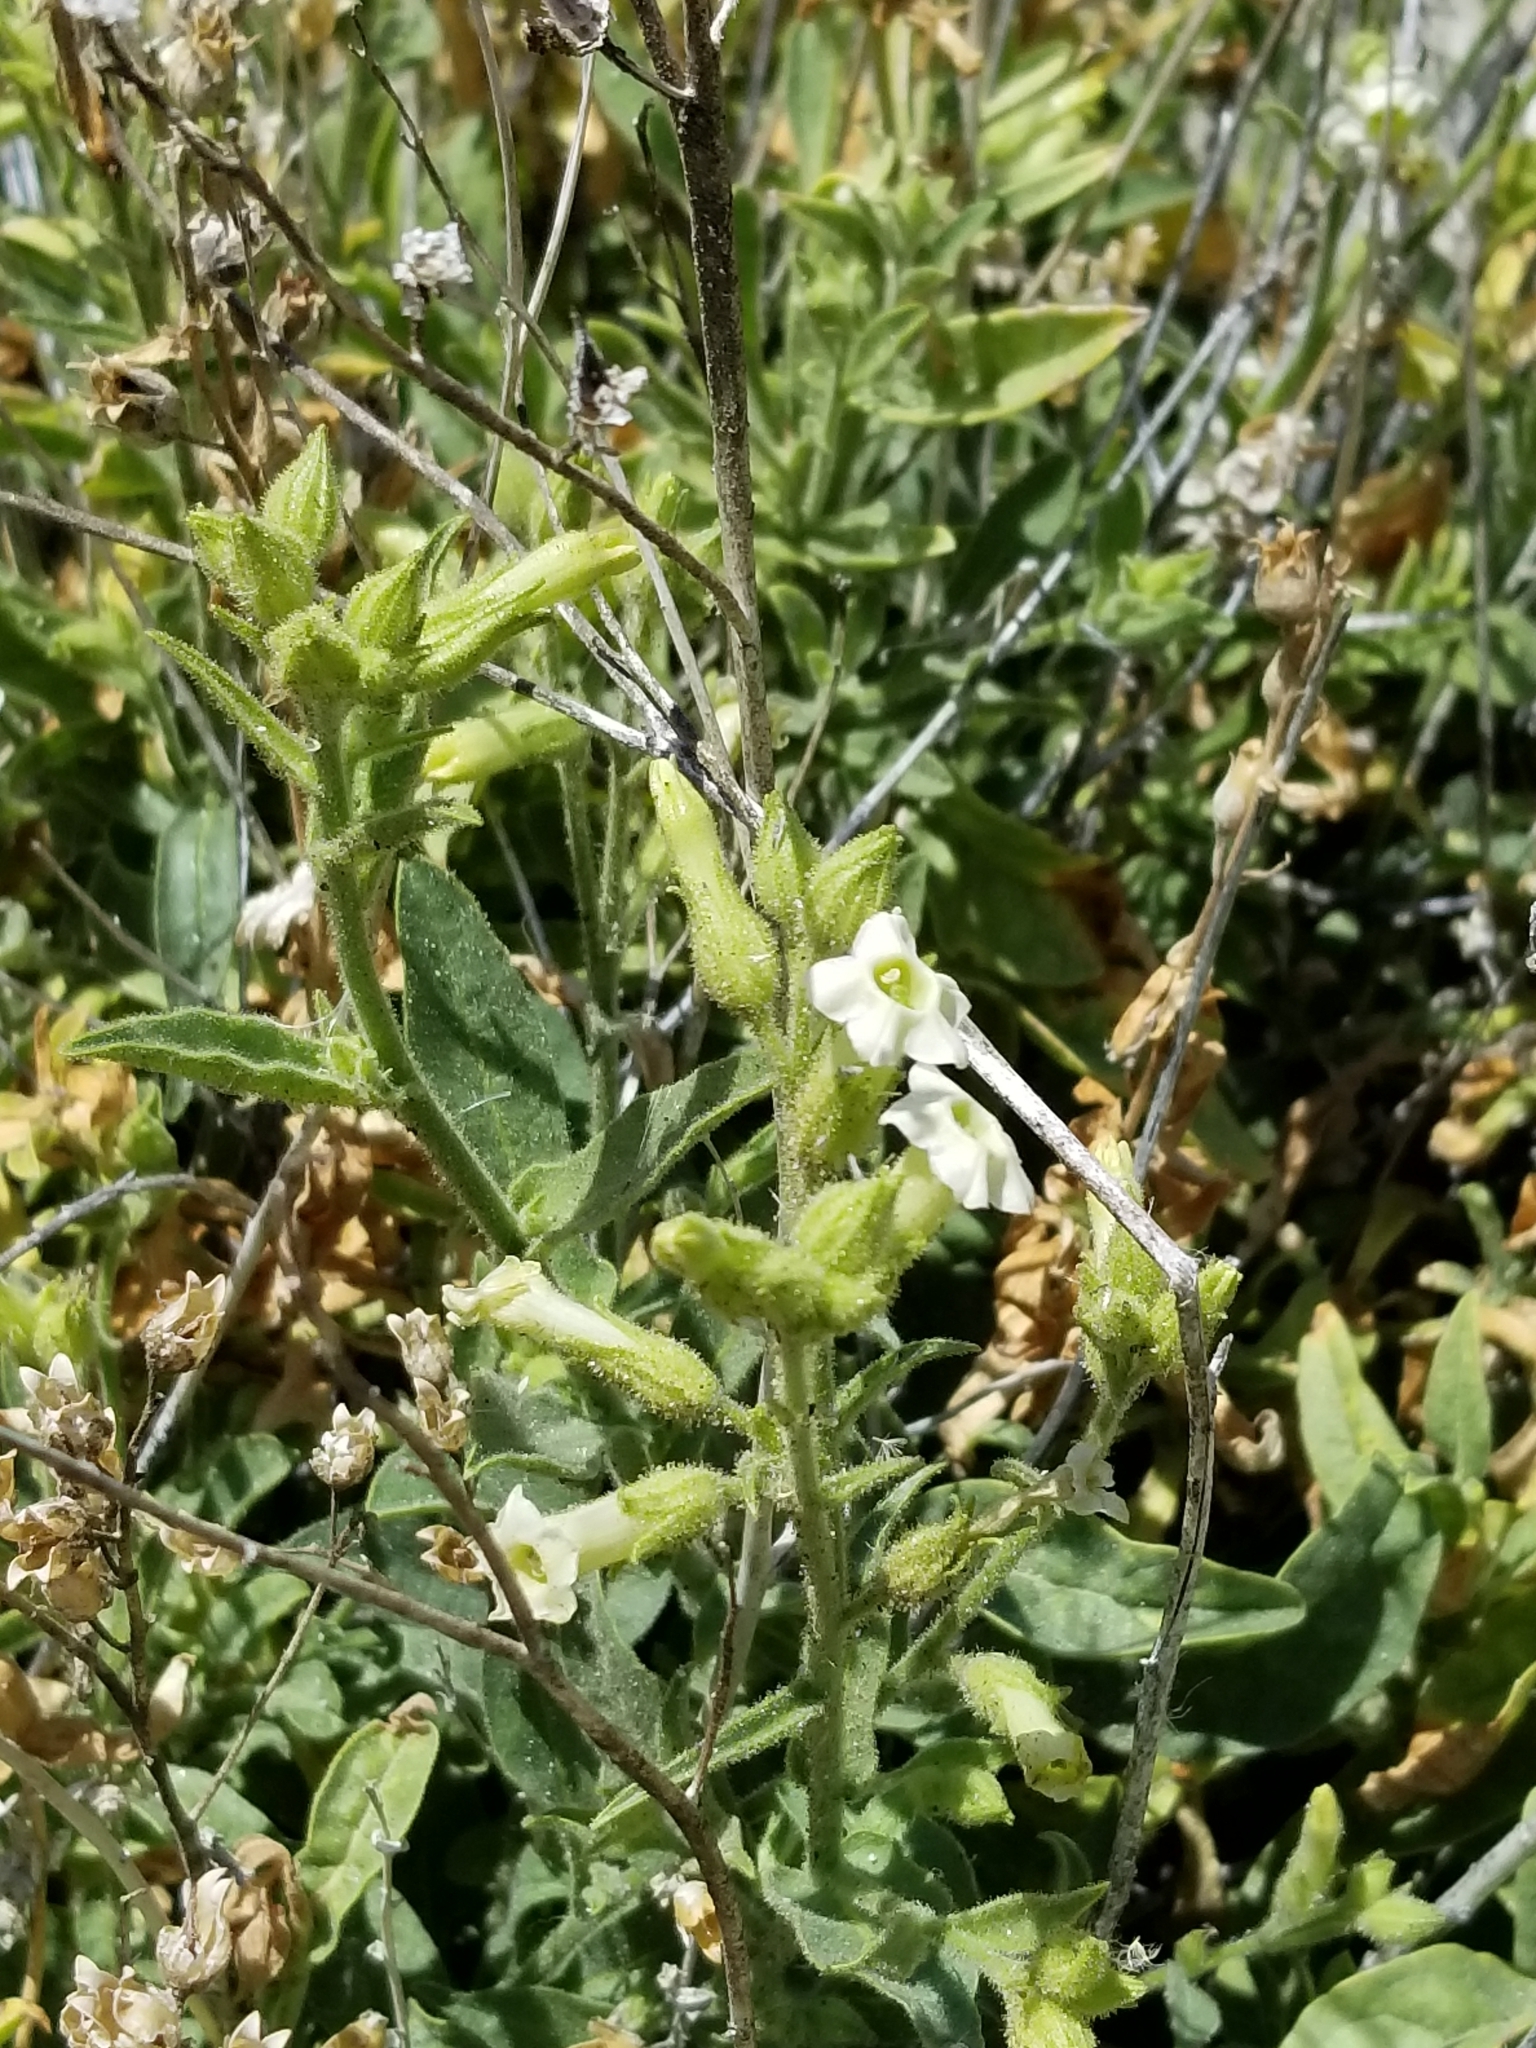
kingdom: Plantae
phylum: Tracheophyta
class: Magnoliopsida
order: Solanales
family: Solanaceae
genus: Nicotiana
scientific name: Nicotiana obtusifolia
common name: Desert tobacco
